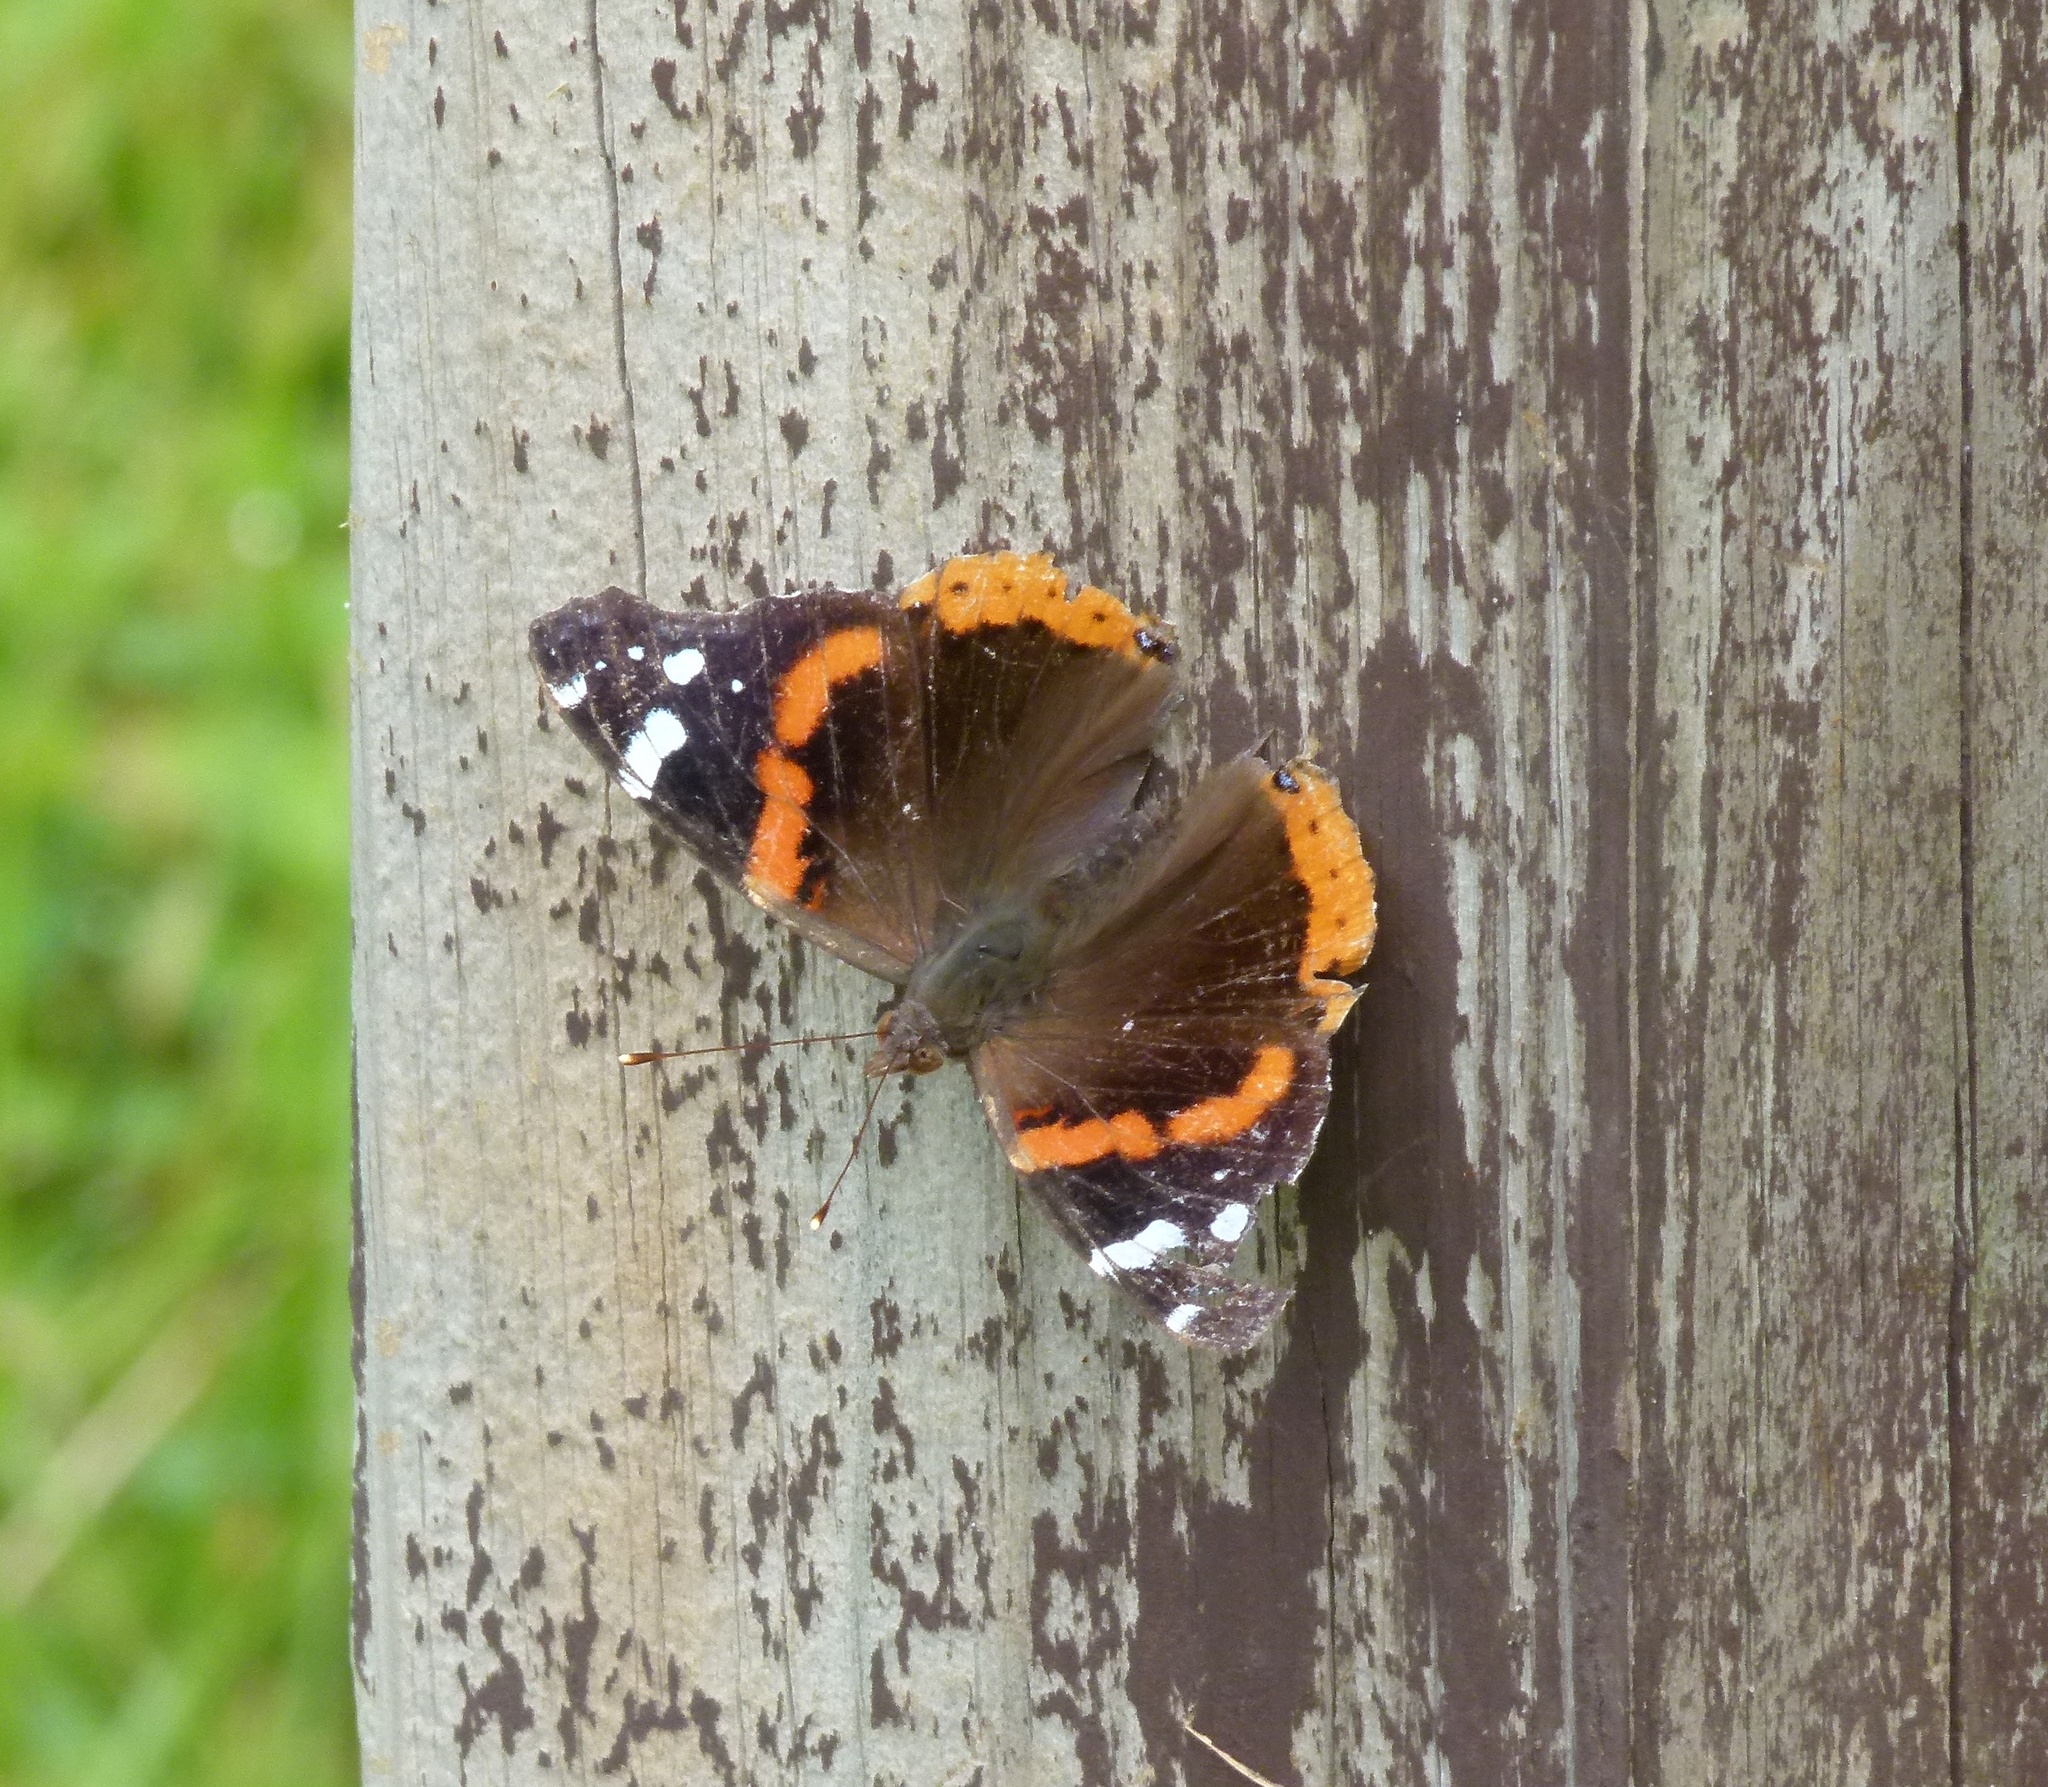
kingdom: Animalia
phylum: Arthropoda
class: Insecta
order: Lepidoptera
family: Nymphalidae
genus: Vanessa
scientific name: Vanessa atalanta
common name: Red admiral
